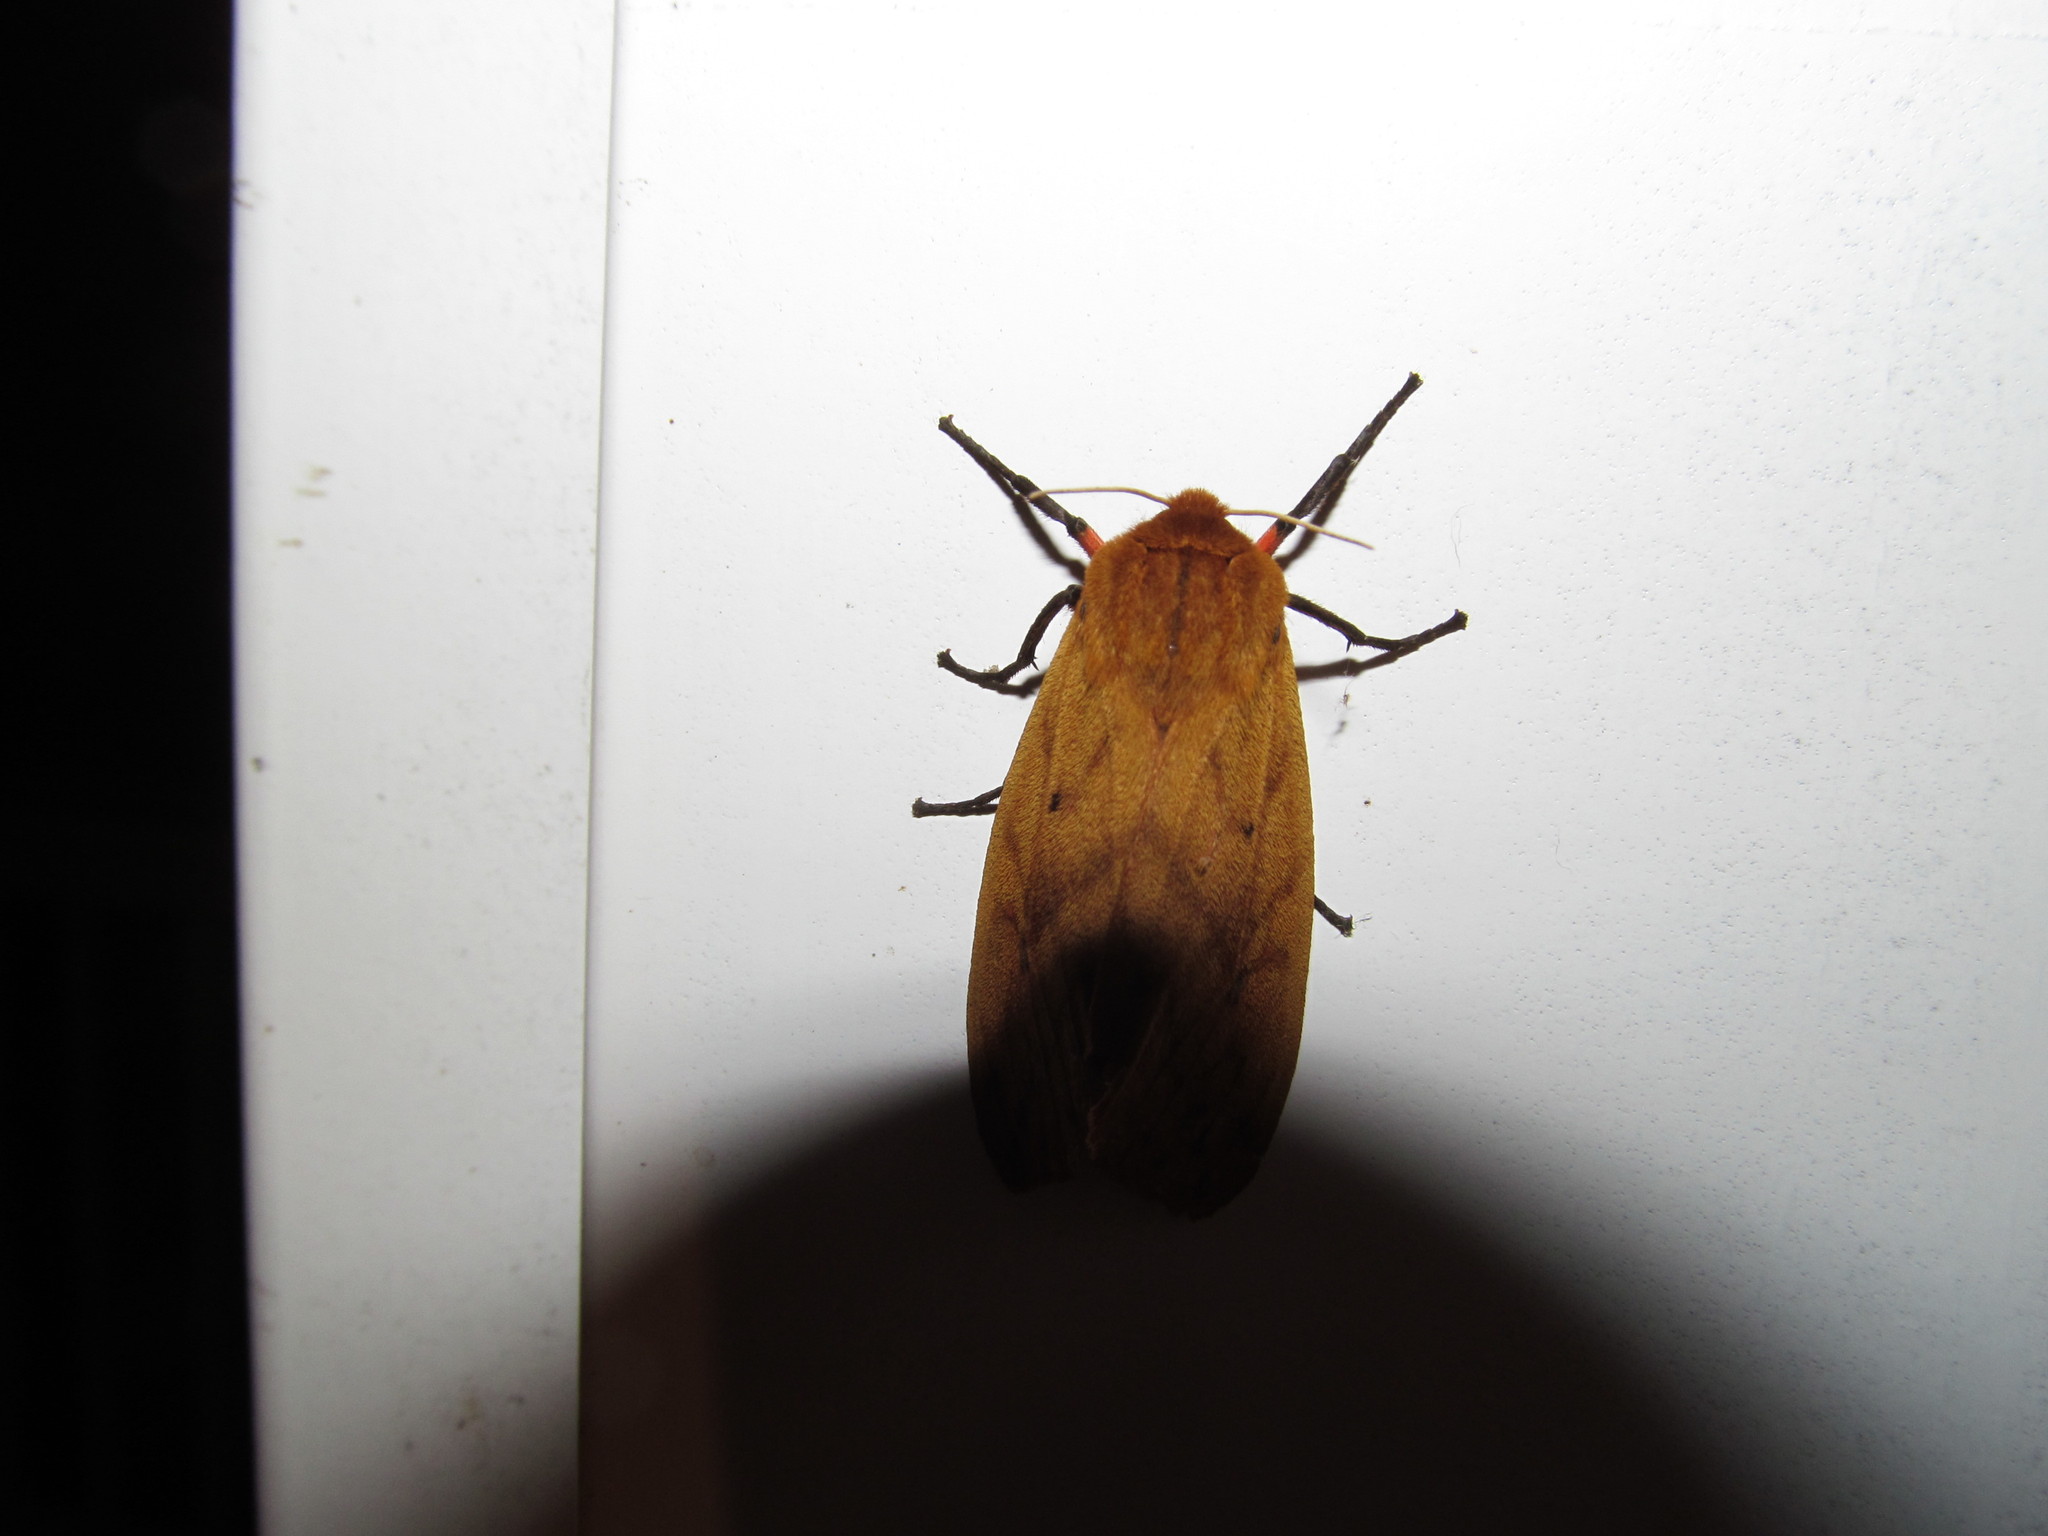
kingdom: Animalia
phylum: Arthropoda
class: Insecta
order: Lepidoptera
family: Erebidae
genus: Pyrrharctia
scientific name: Pyrrharctia isabella
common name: Isabella tiger moth
